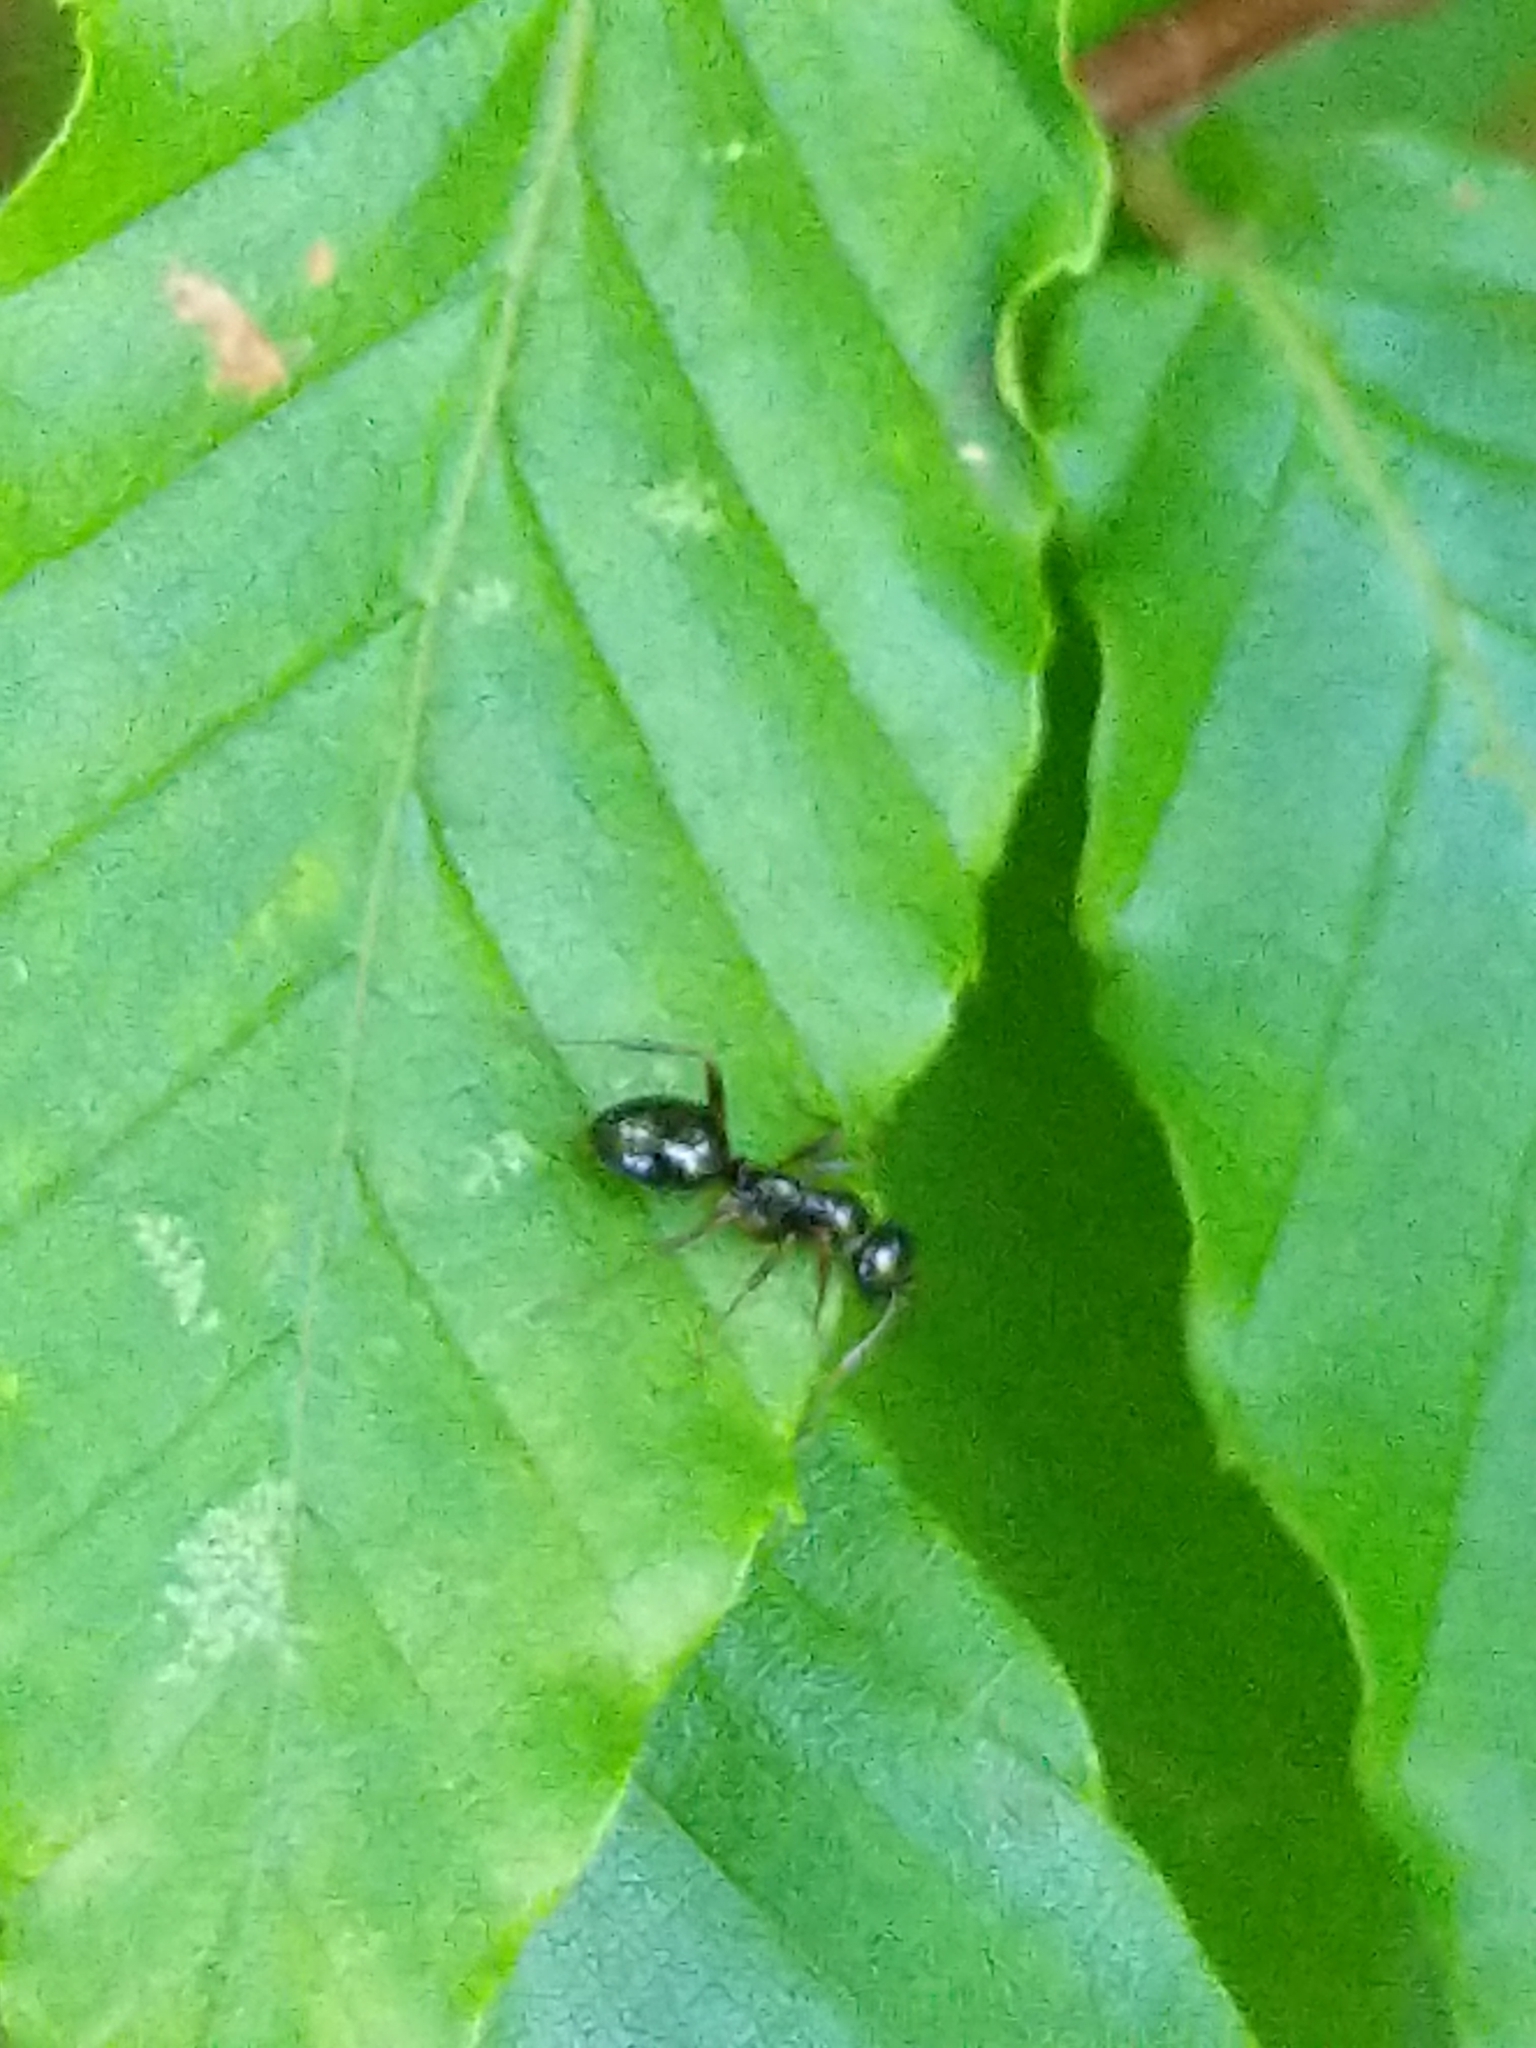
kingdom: Animalia
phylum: Arthropoda
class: Insecta
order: Hymenoptera
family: Formicidae
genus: Formica
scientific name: Formica
